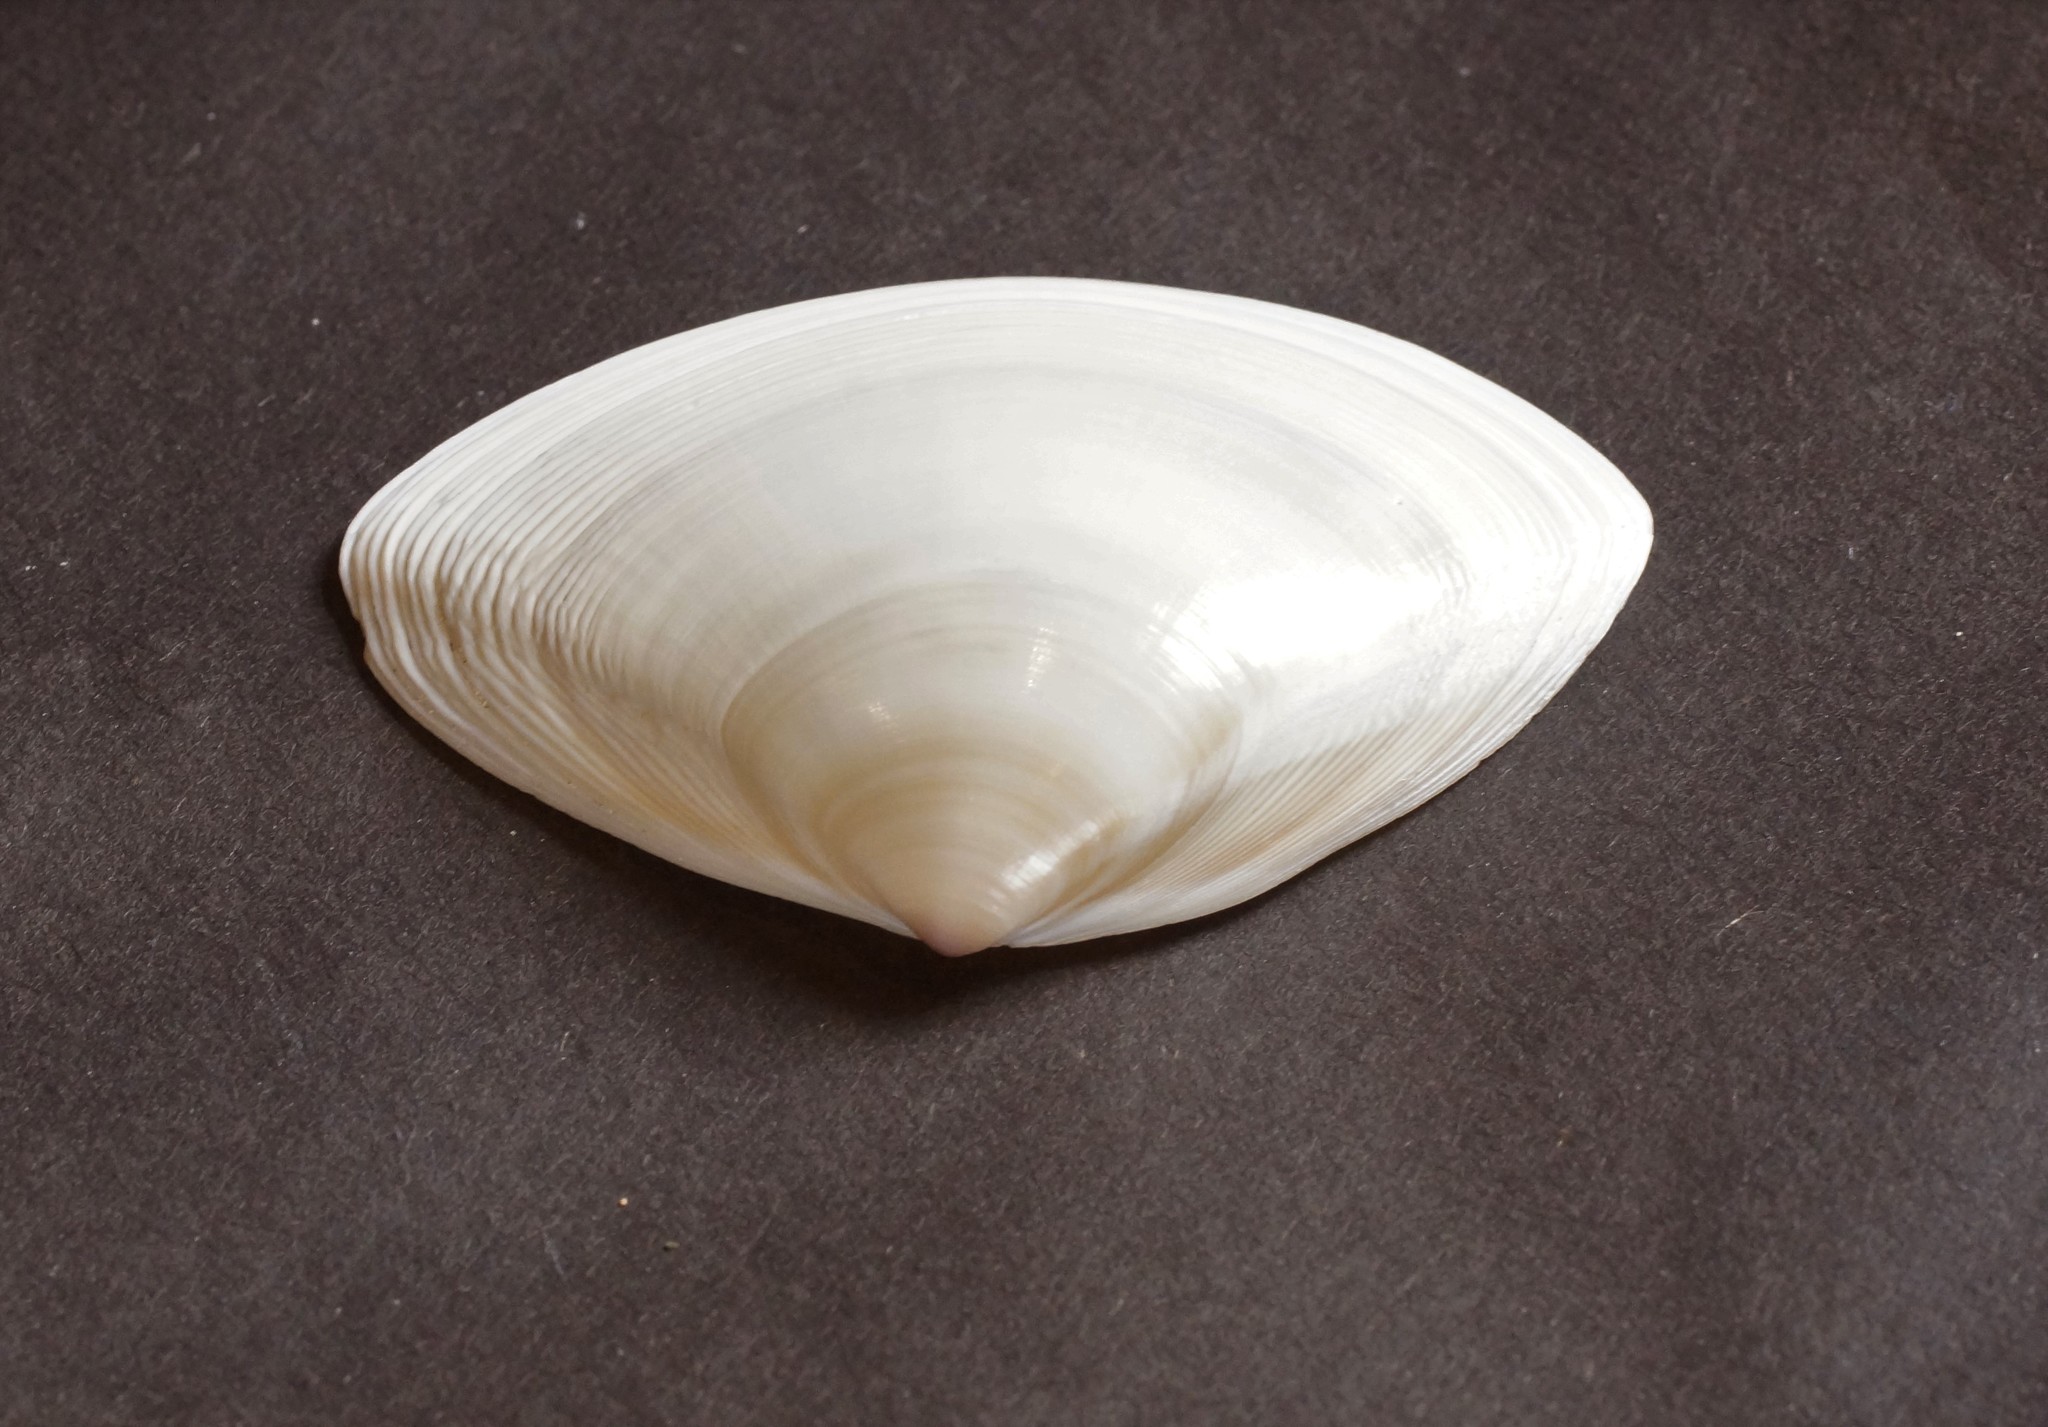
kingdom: Animalia
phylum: Mollusca
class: Bivalvia
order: Venerida
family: Mactridae
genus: Austromactra
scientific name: Austromactra rufescens
